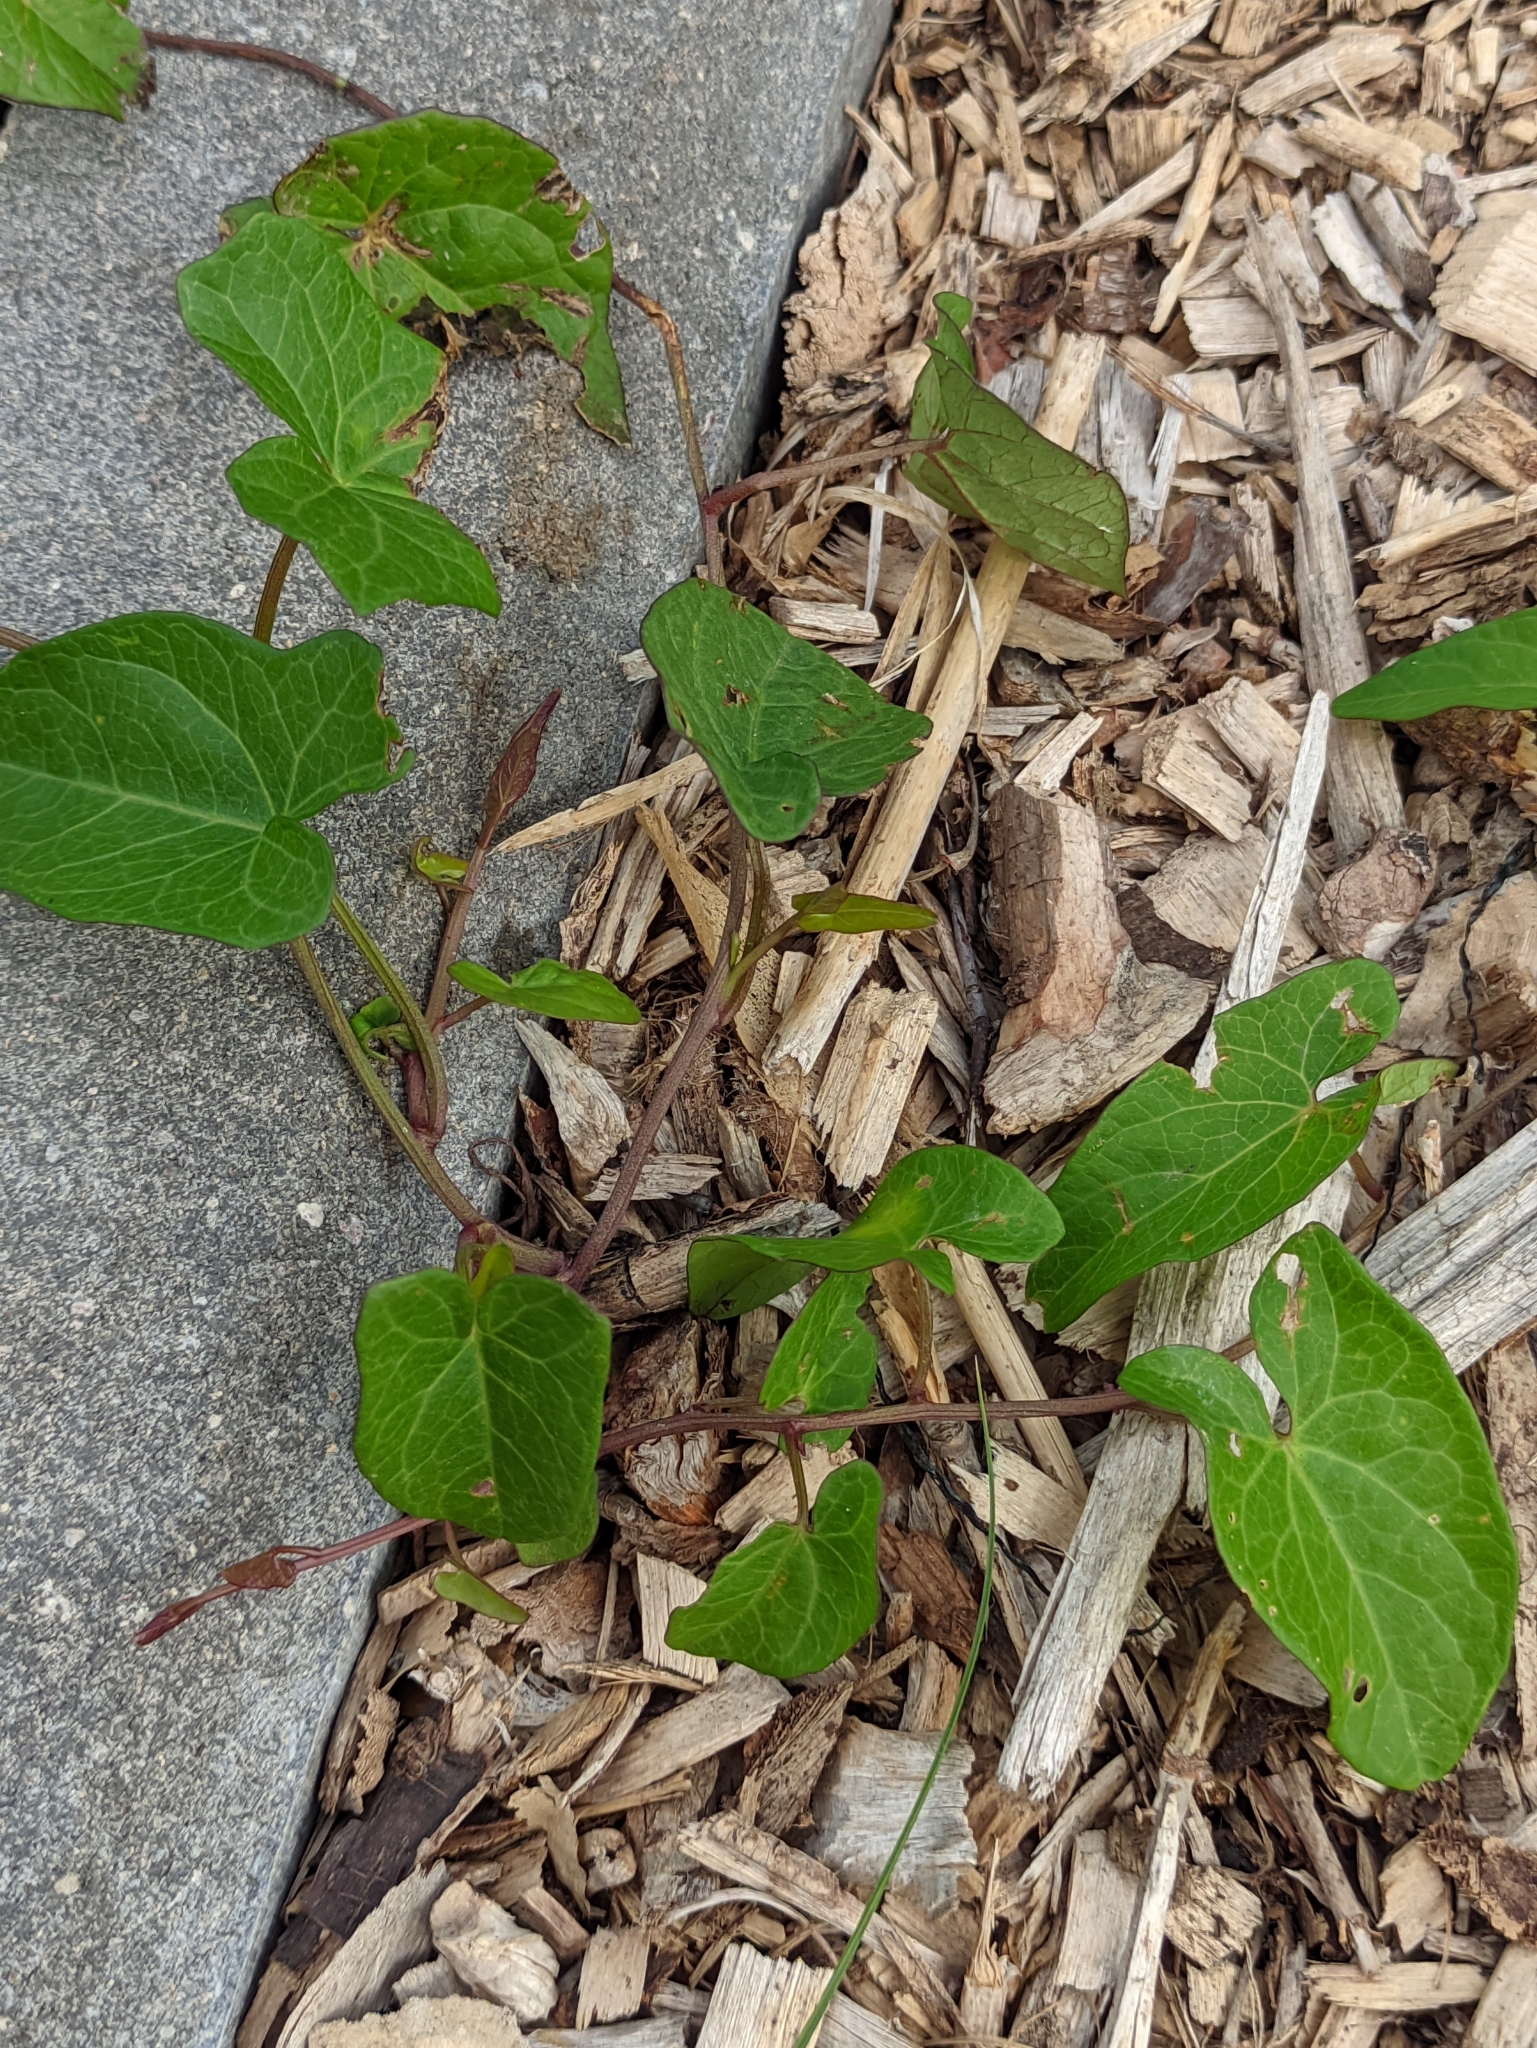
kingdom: Plantae
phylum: Tracheophyta
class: Magnoliopsida
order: Solanales
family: Convolvulaceae
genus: Calystegia
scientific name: Calystegia
